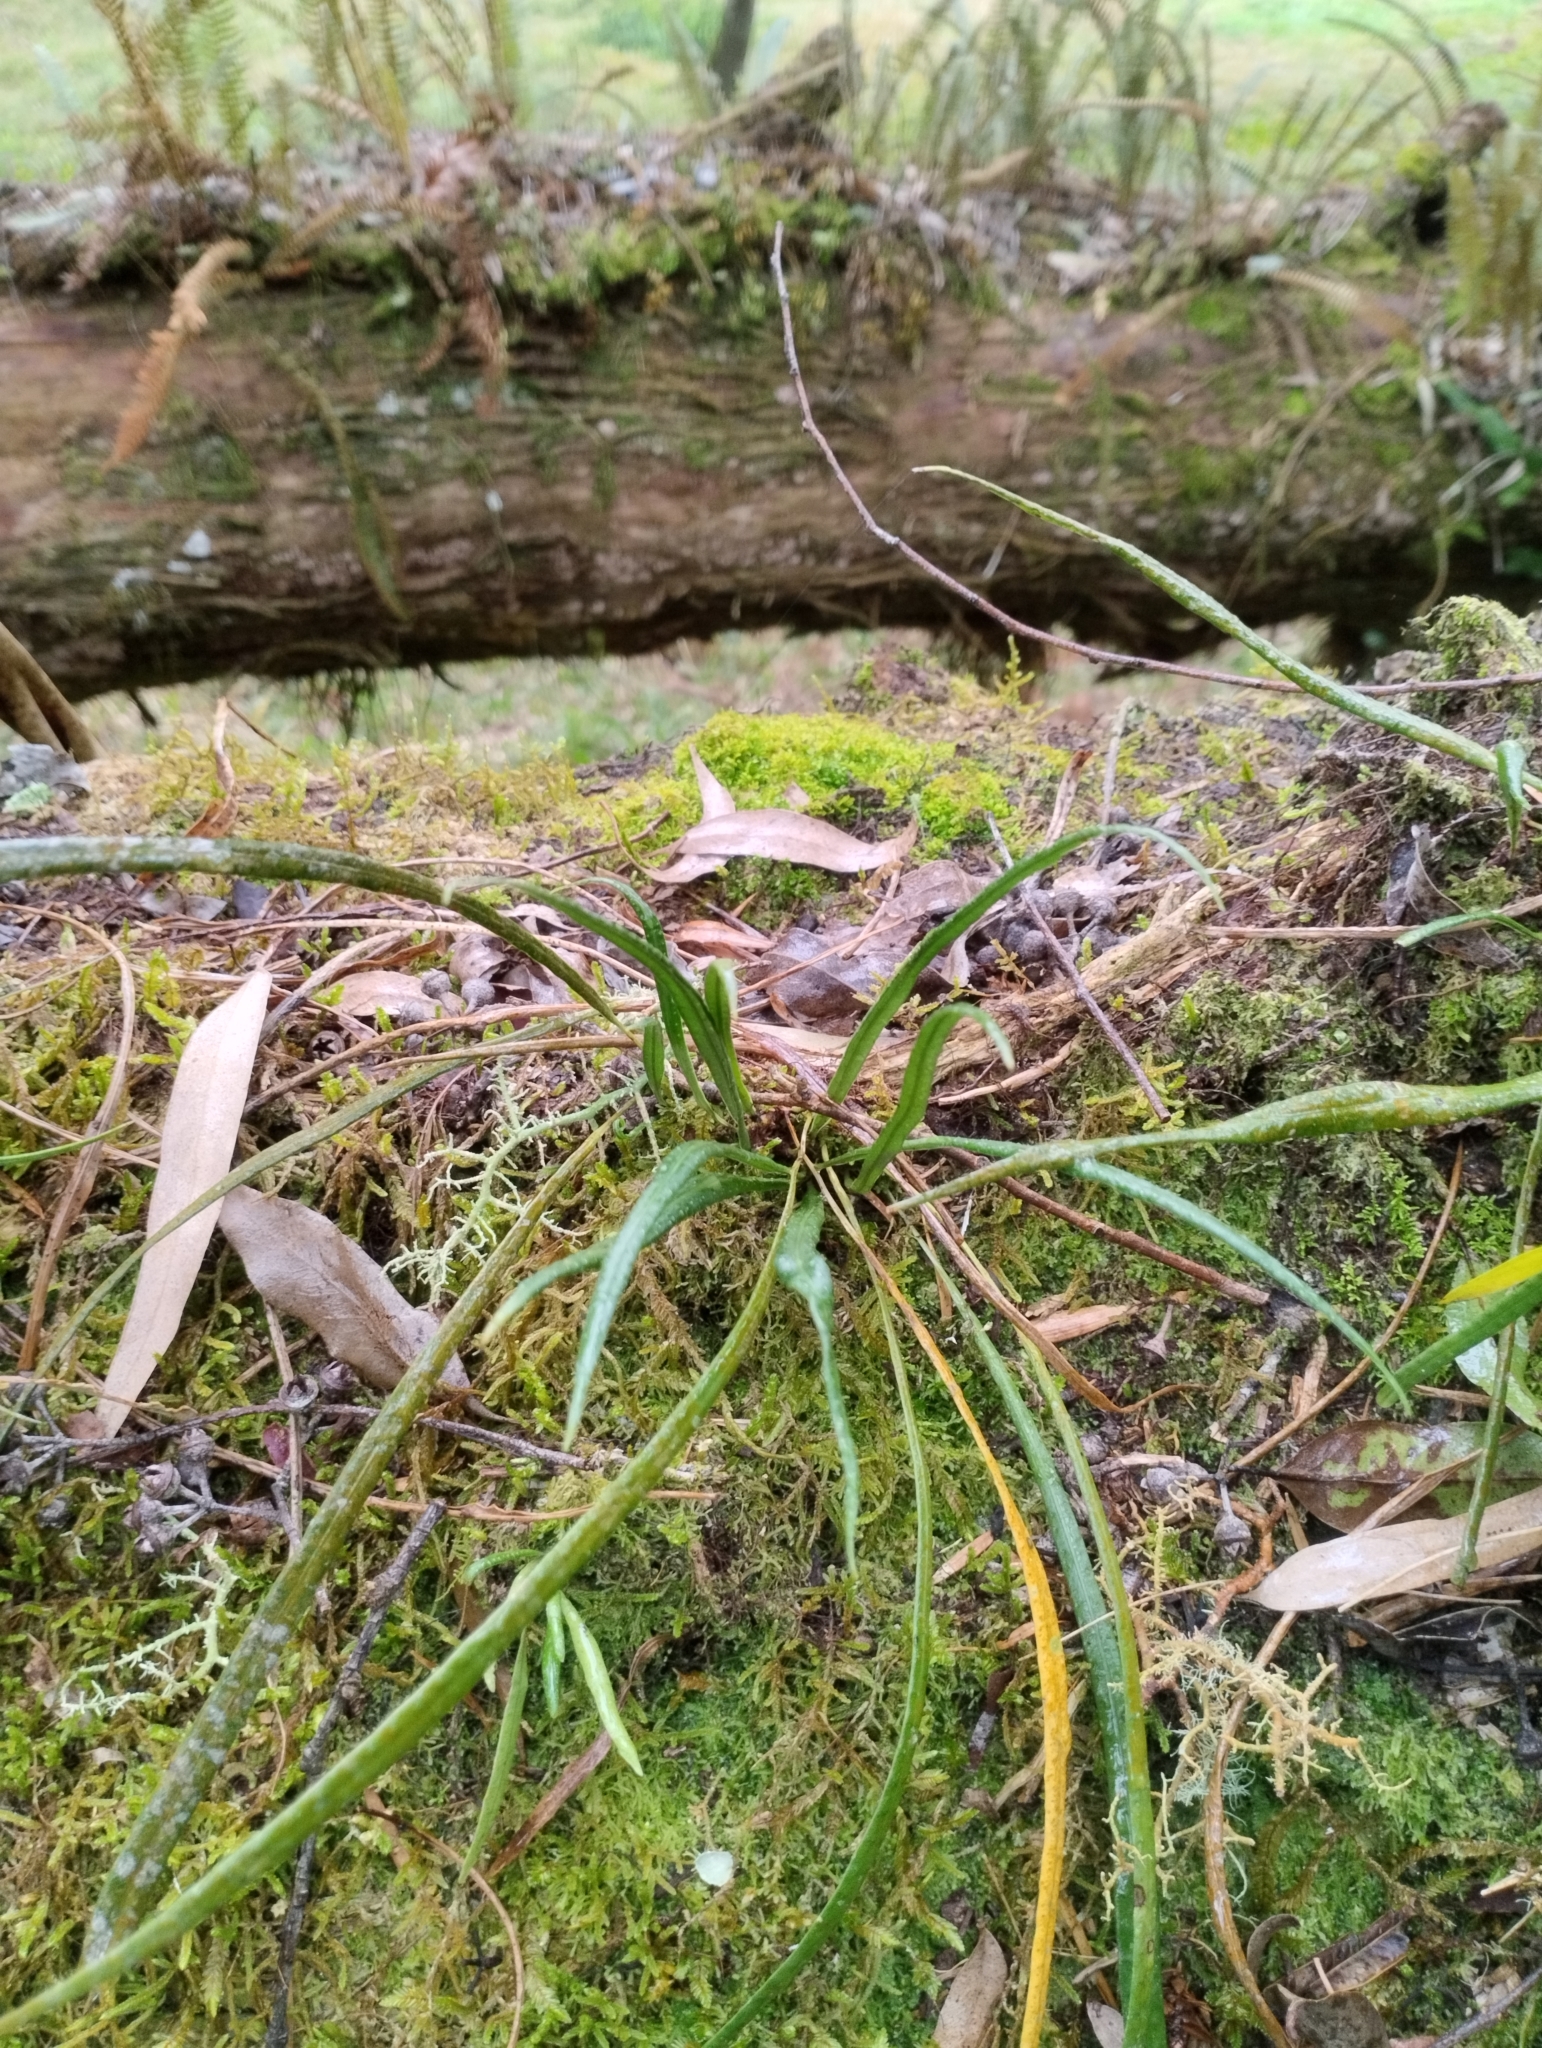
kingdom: Plantae
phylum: Tracheophyta
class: Polypodiopsida
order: Polypodiales
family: Polypodiaceae
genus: Campyloneurum
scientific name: Campyloneurum austrobrasilianum
